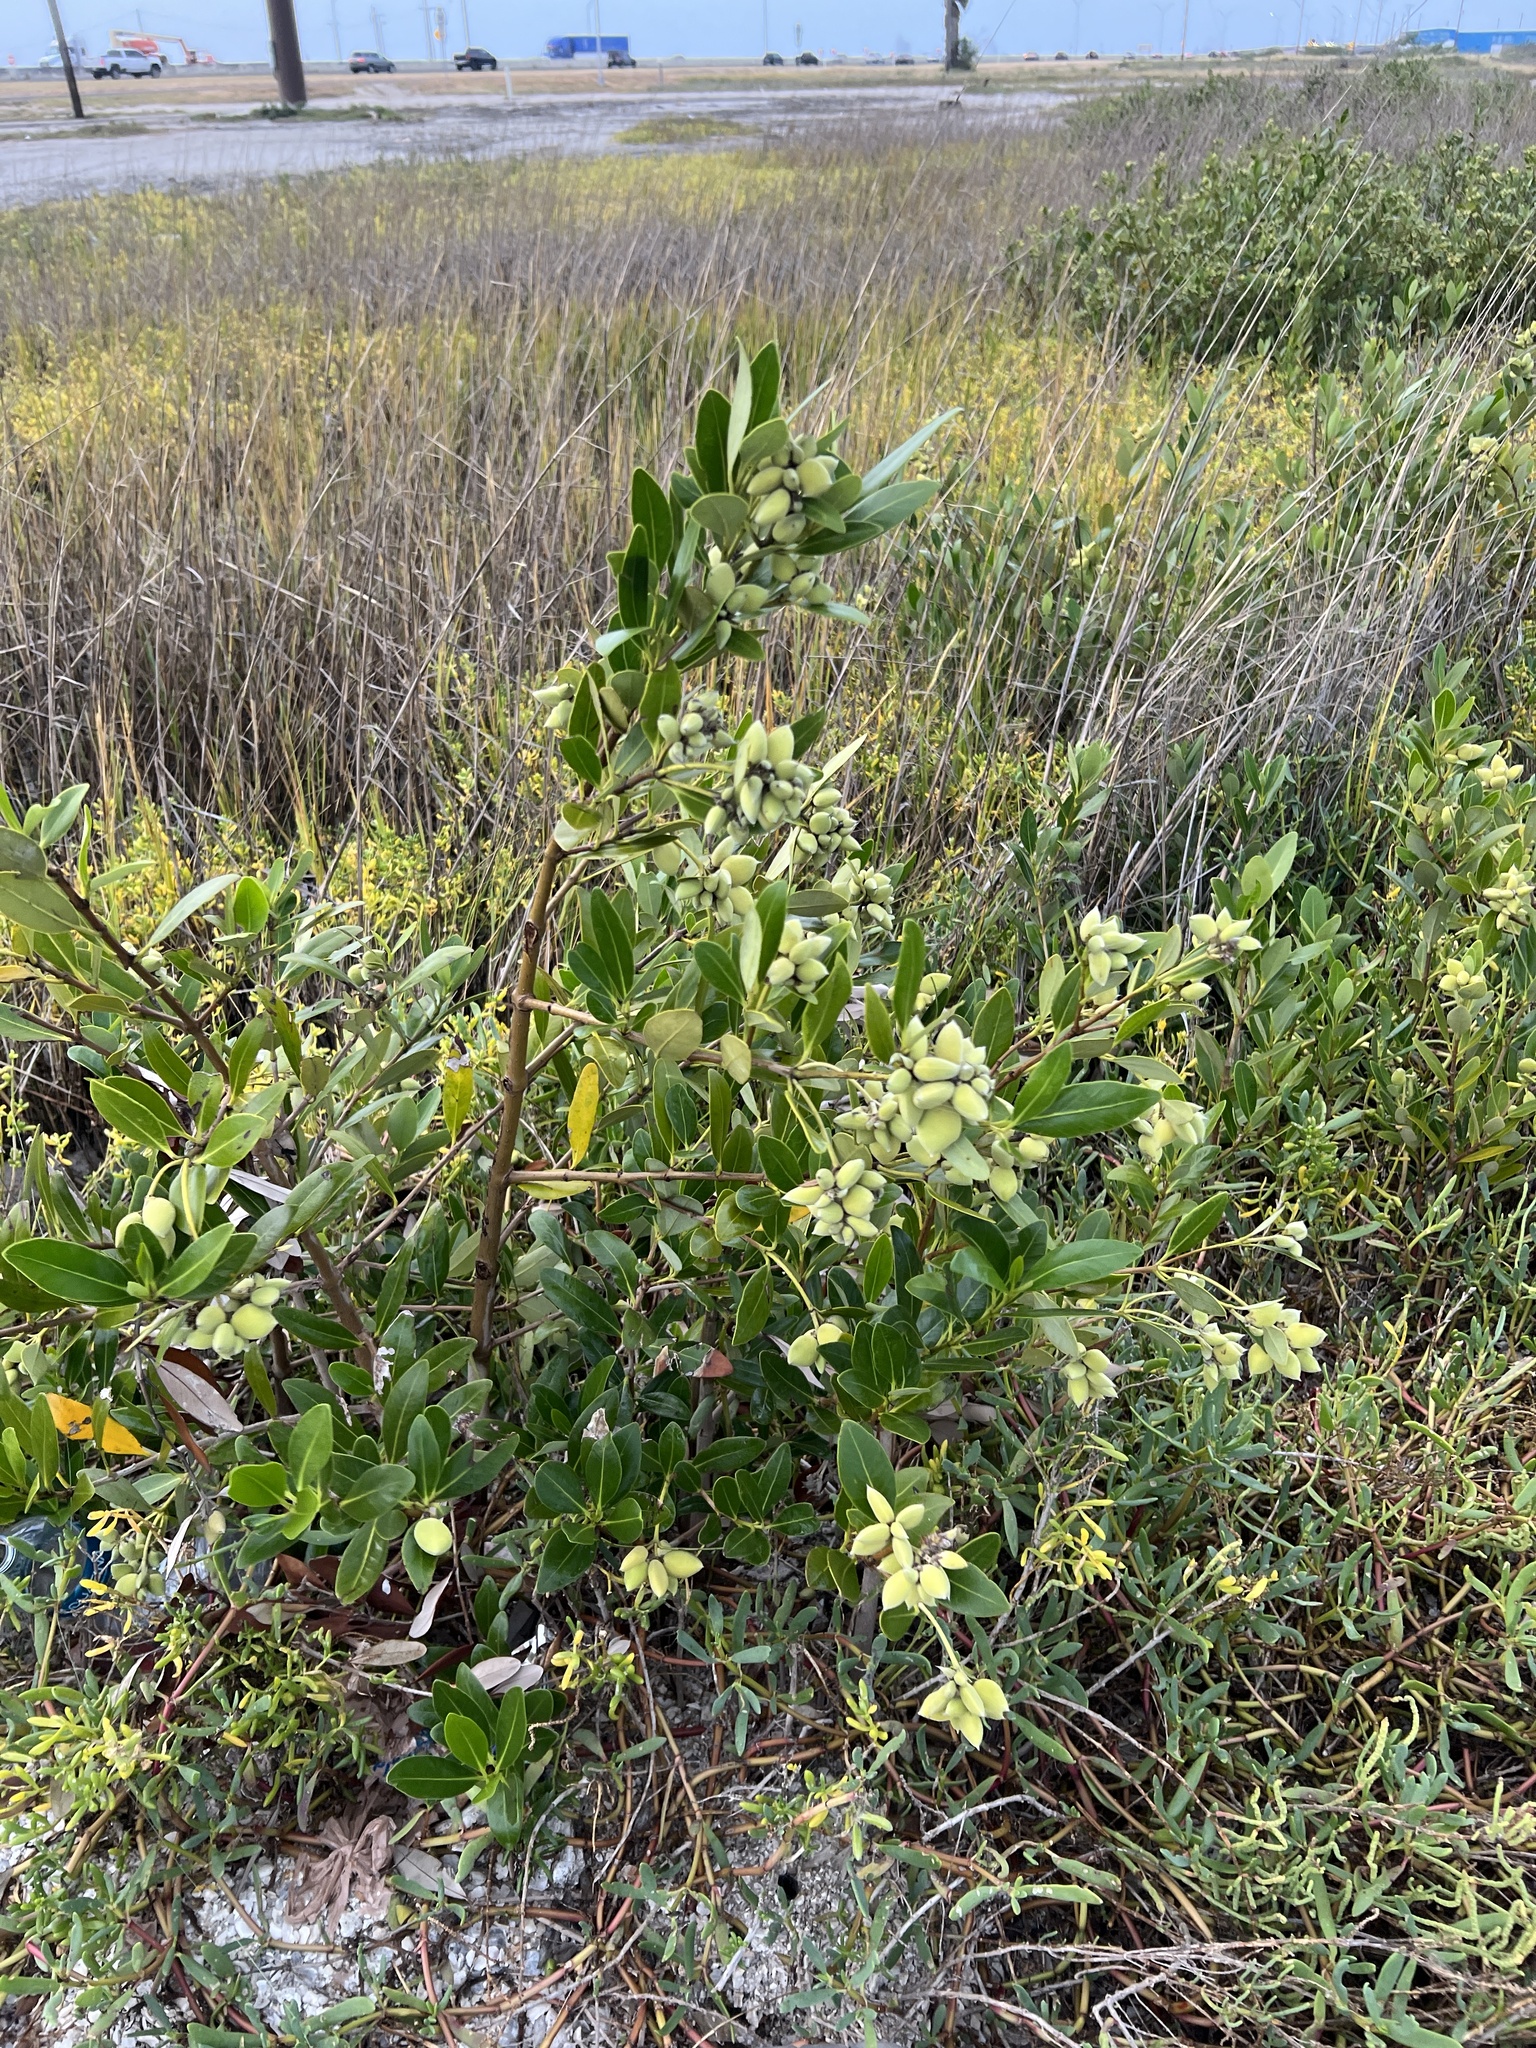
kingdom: Plantae
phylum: Tracheophyta
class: Magnoliopsida
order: Lamiales
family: Acanthaceae
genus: Avicennia
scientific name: Avicennia germinans
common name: Black mangrove
